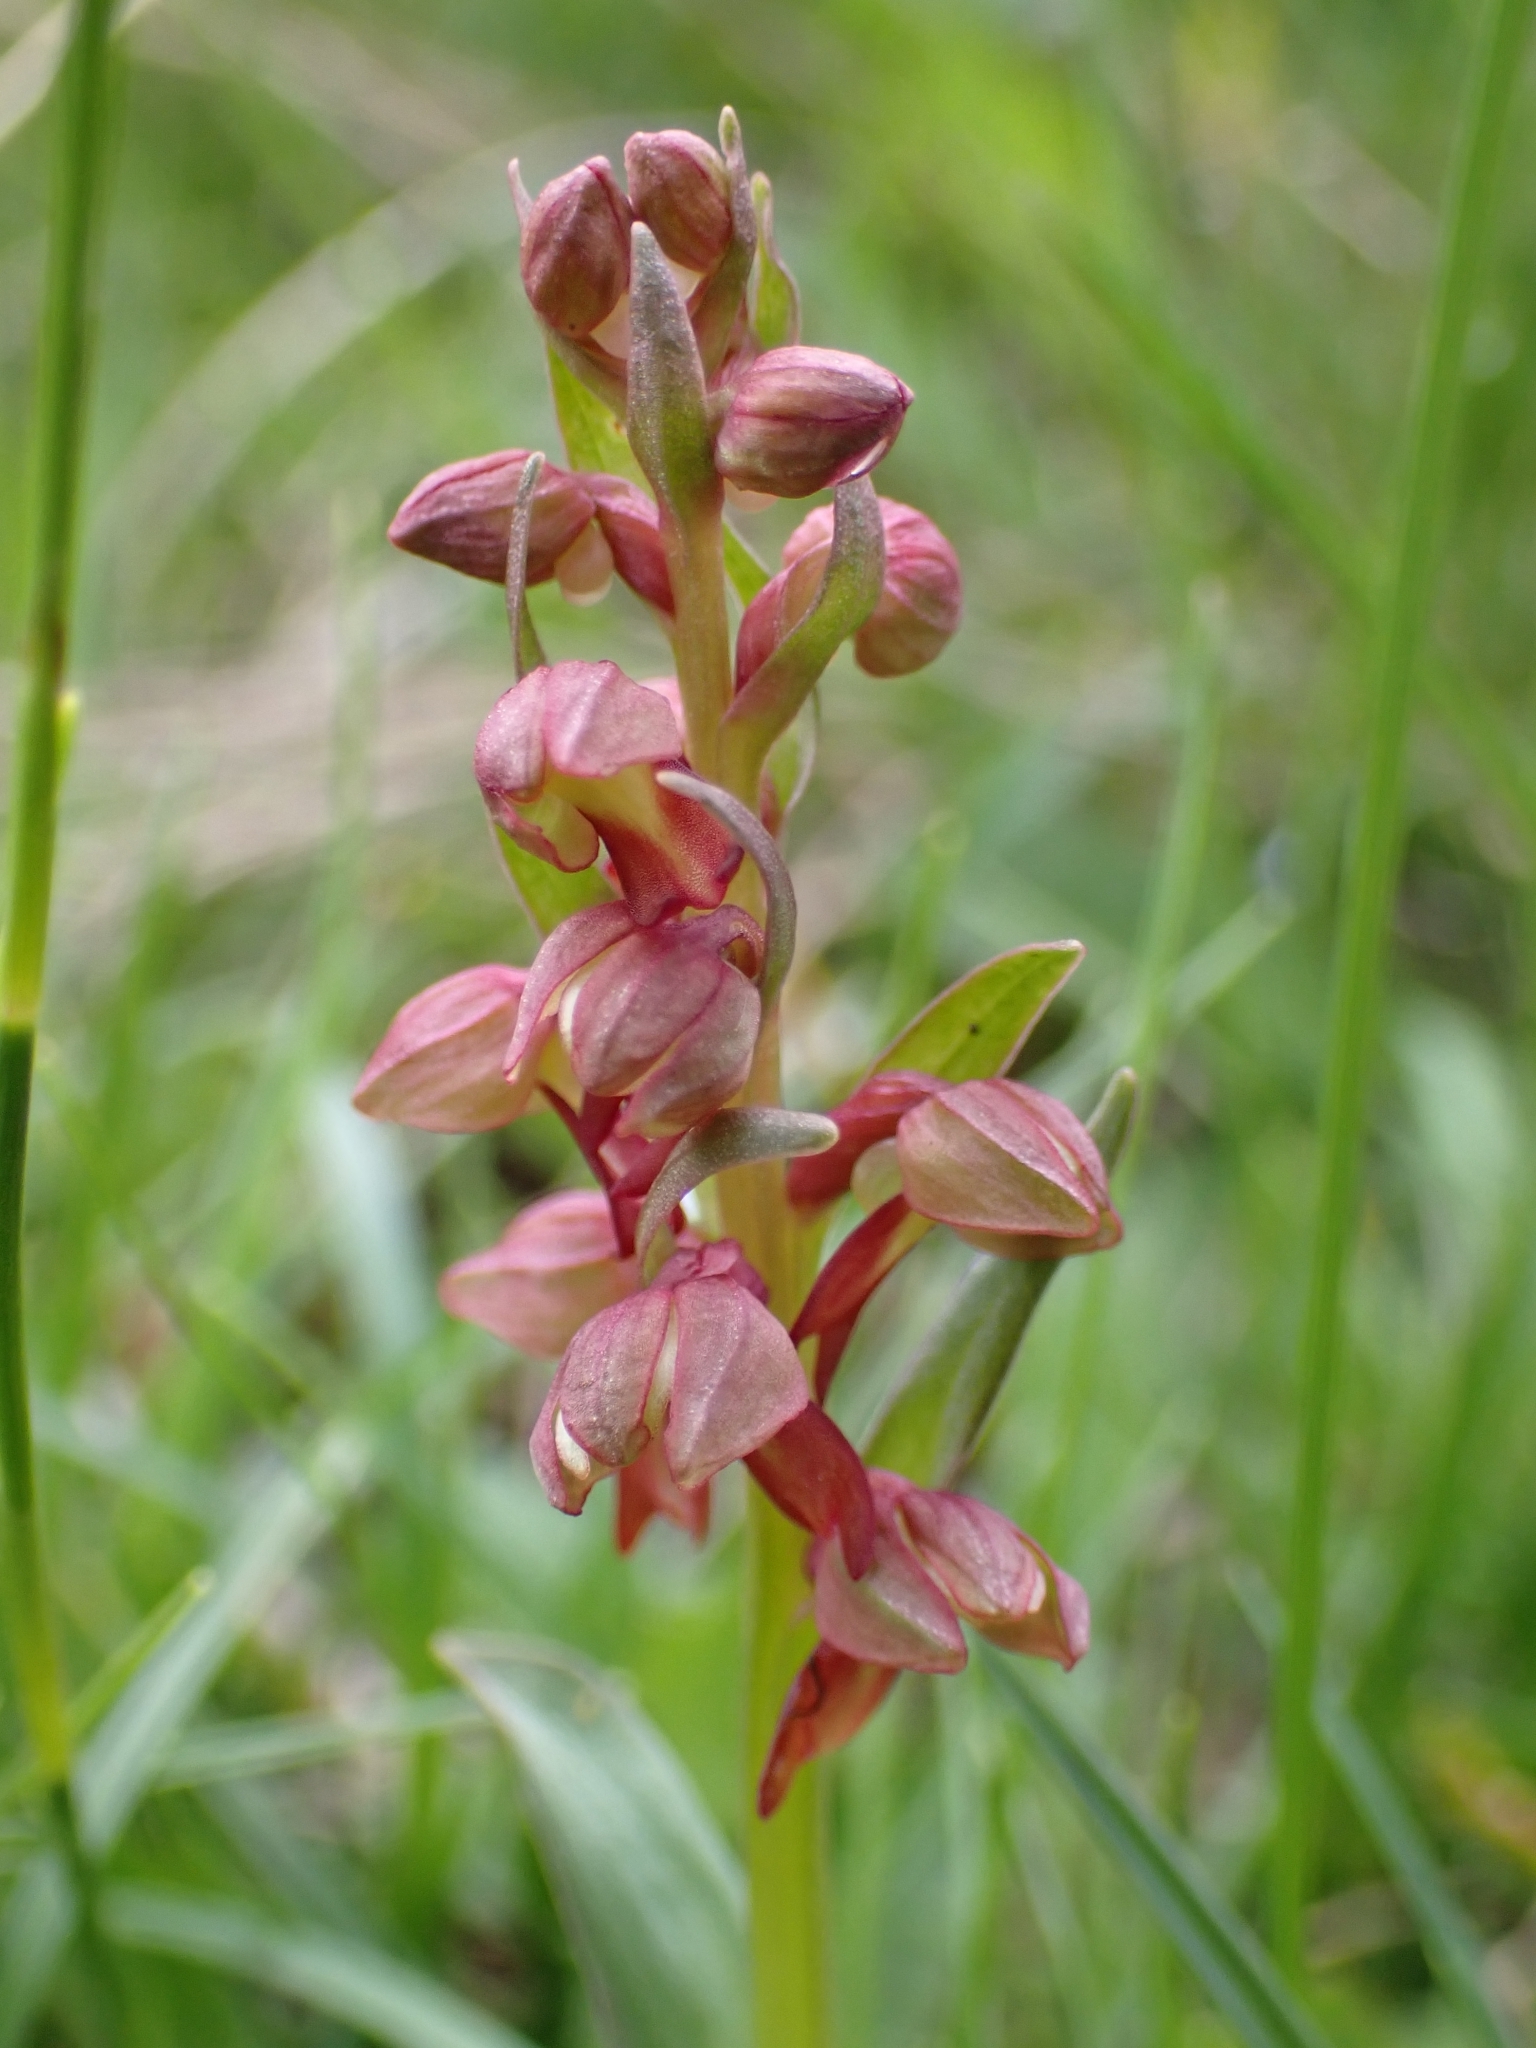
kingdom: Plantae
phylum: Tracheophyta
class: Liliopsida
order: Asparagales
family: Orchidaceae
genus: Dactylorhiza
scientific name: Dactylorhiza viridis
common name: Longbract frog orchid
